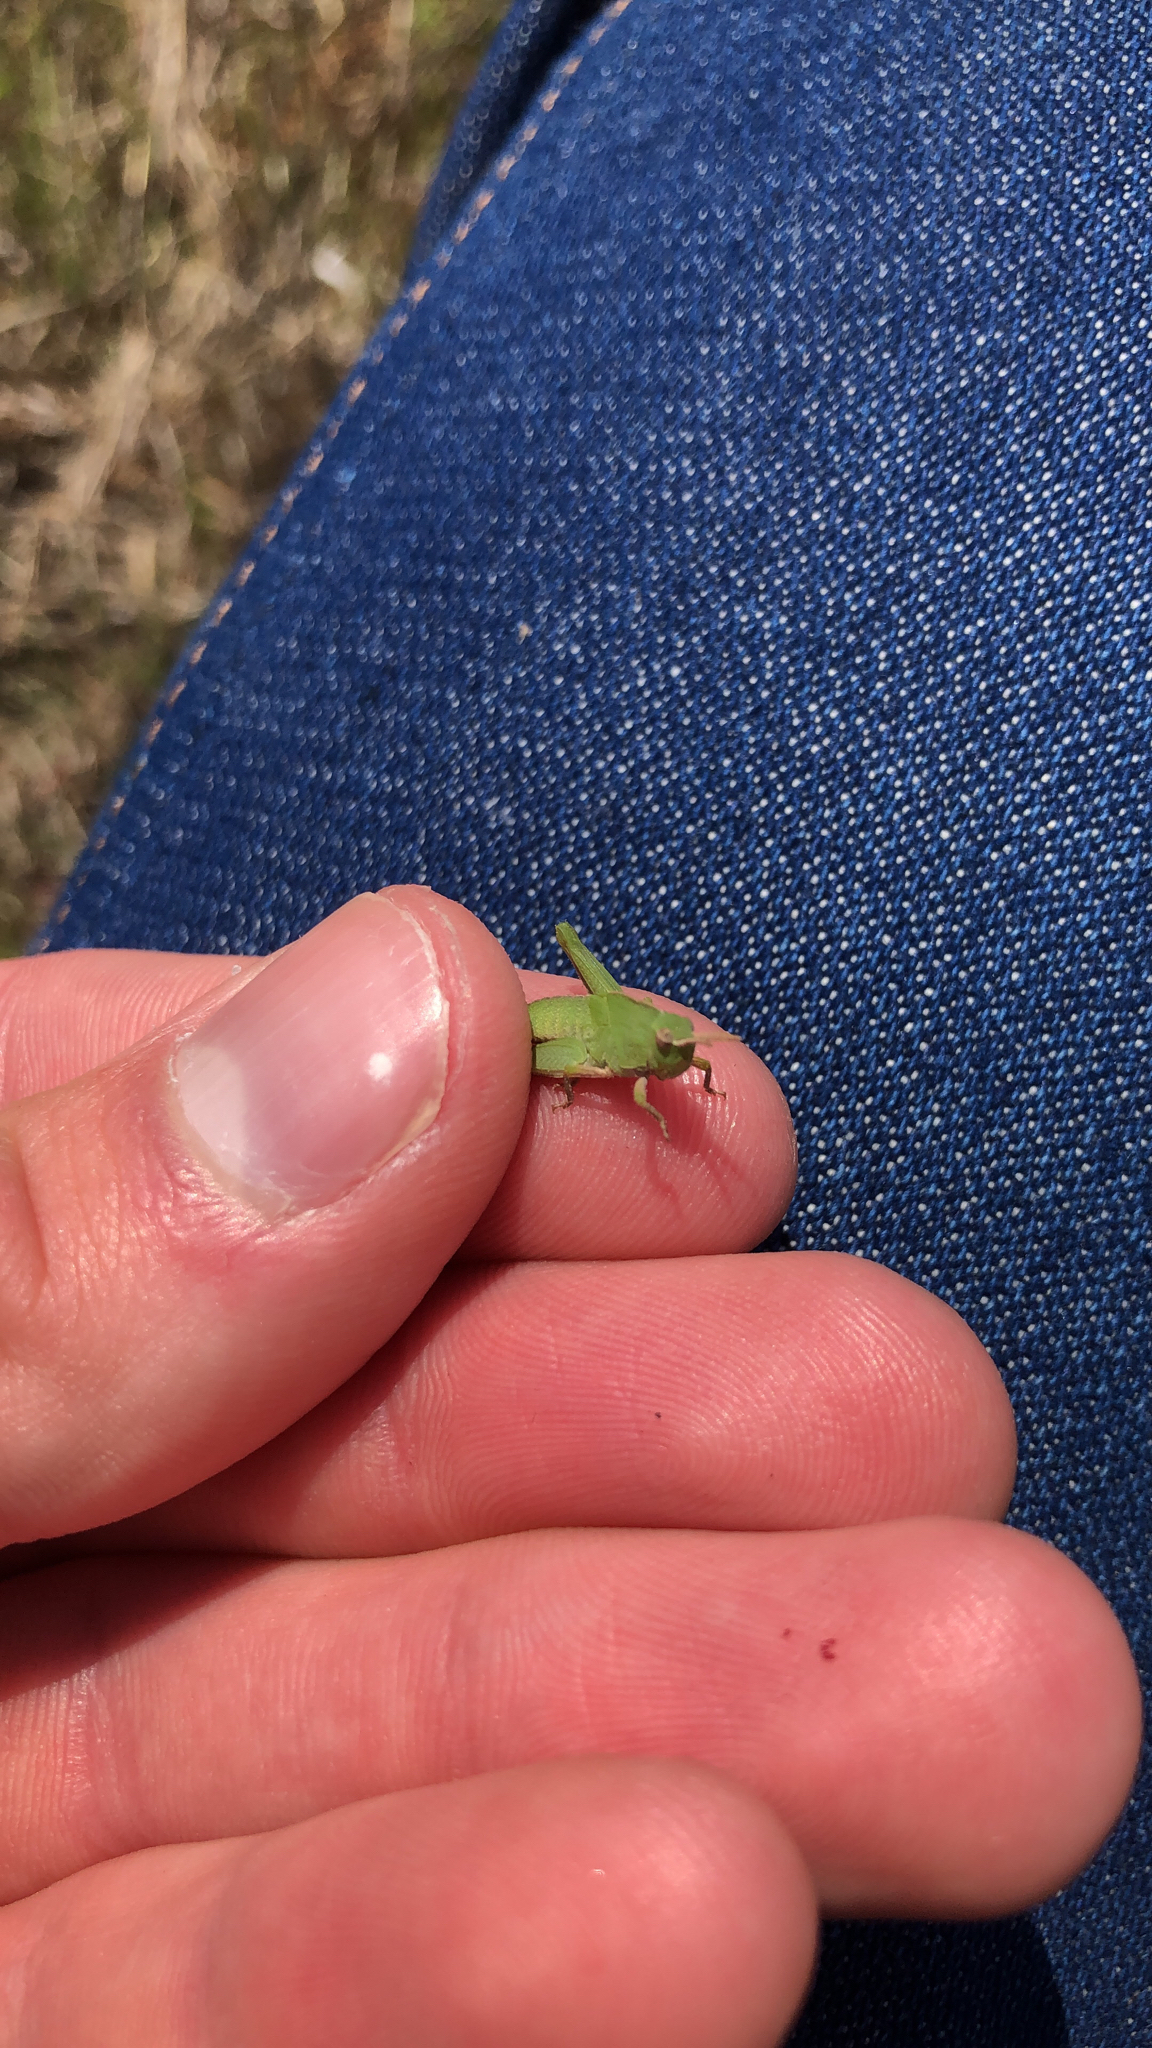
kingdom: Animalia
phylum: Arthropoda
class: Insecta
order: Orthoptera
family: Acrididae
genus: Chortophaga
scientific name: Chortophaga viridifasciata
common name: Green-striped grasshopper
